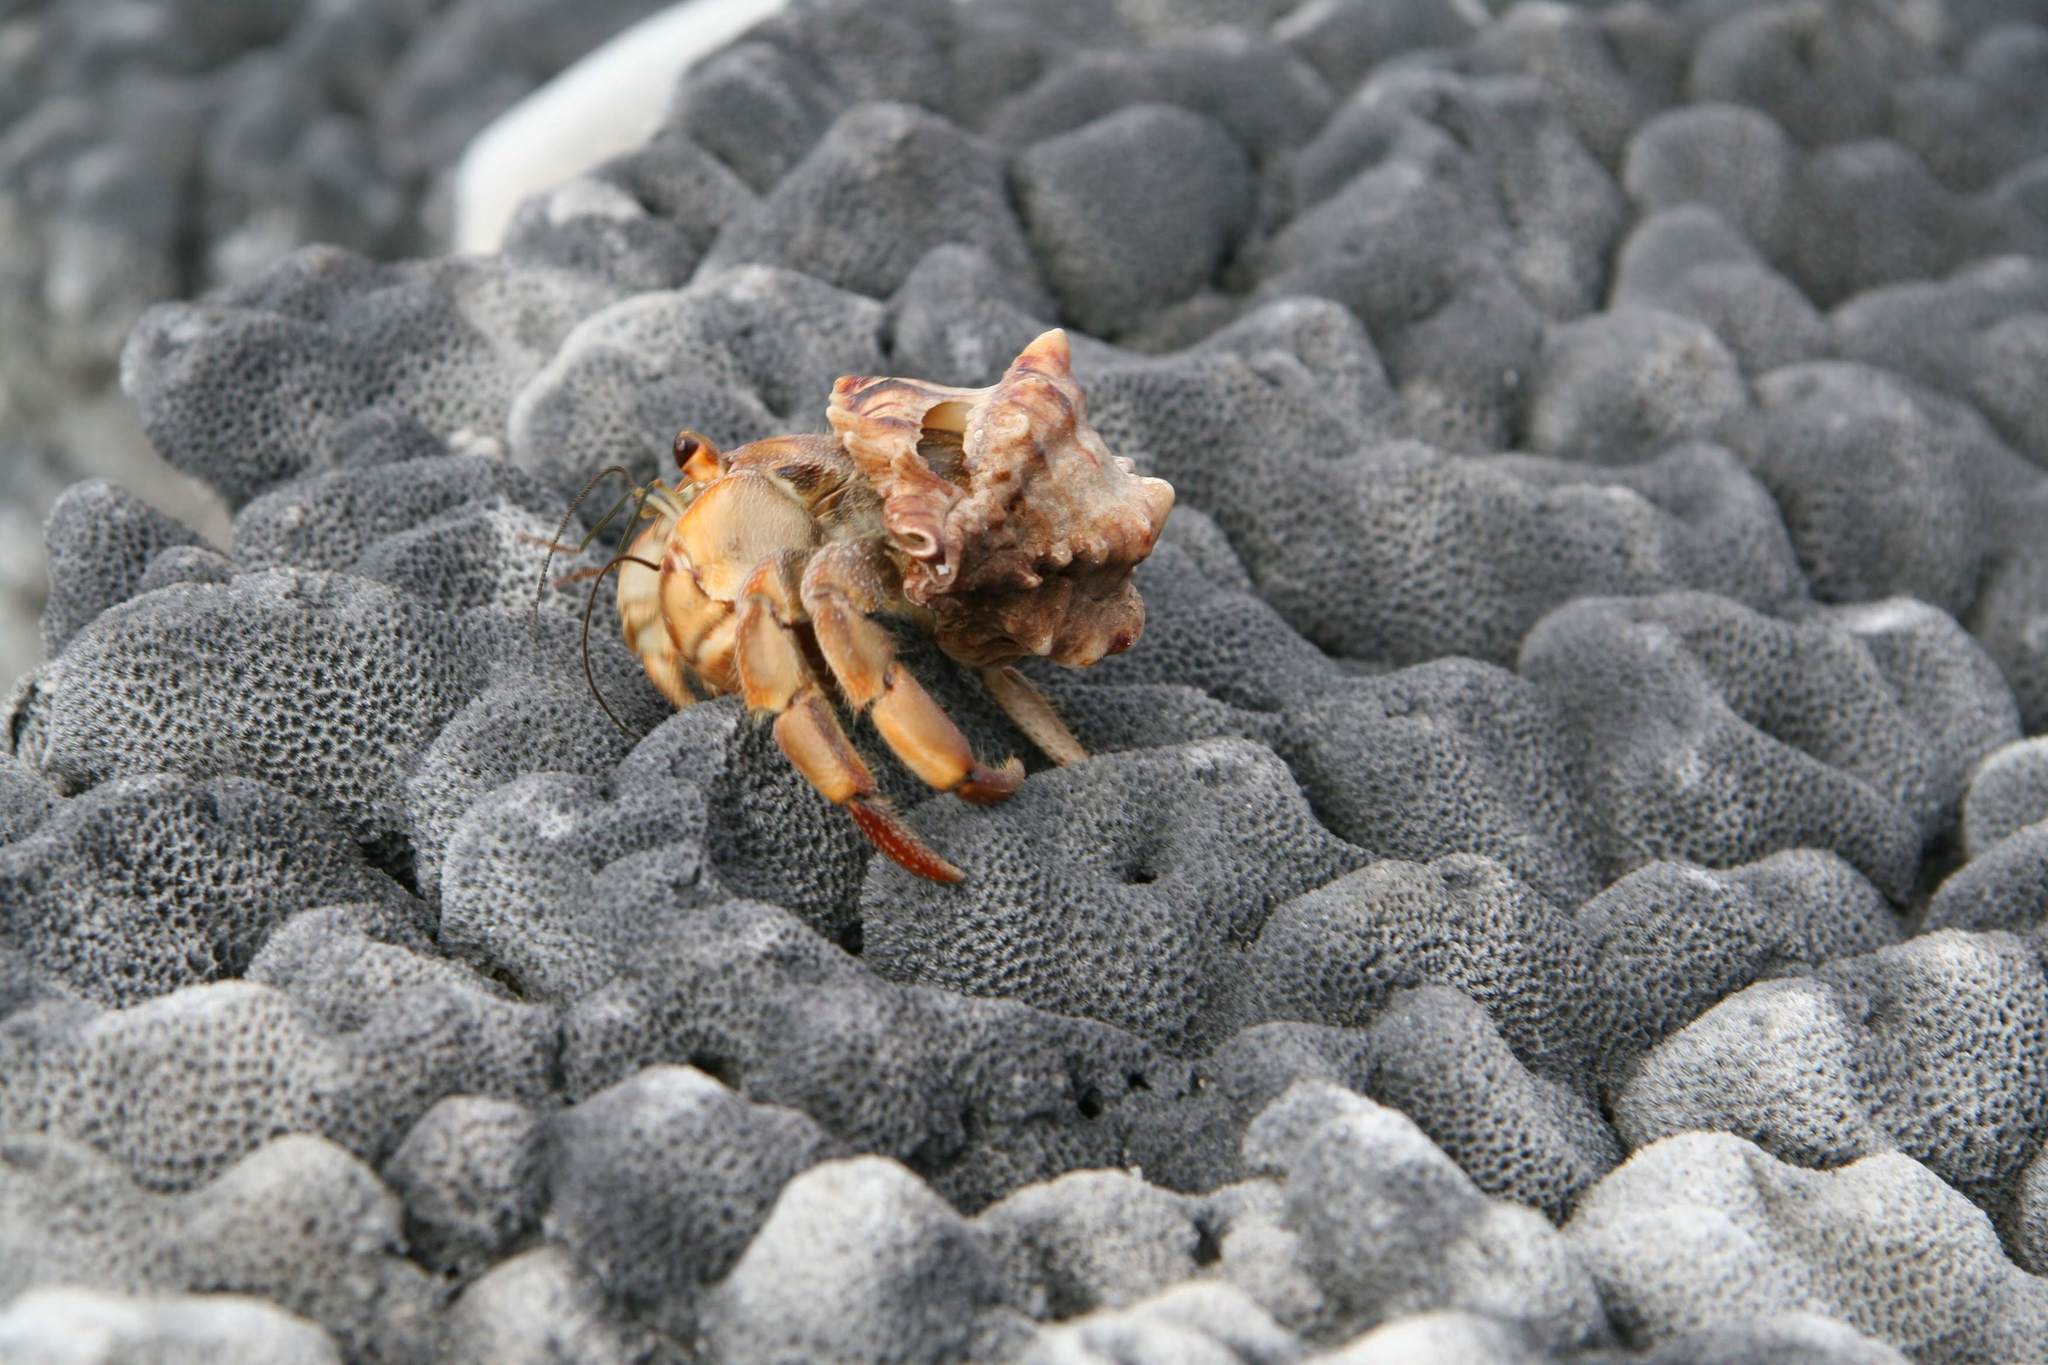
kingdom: Animalia
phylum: Arthropoda
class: Malacostraca
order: Decapoda
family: Coenobitidae
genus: Coenobita
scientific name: Coenobita compressus
